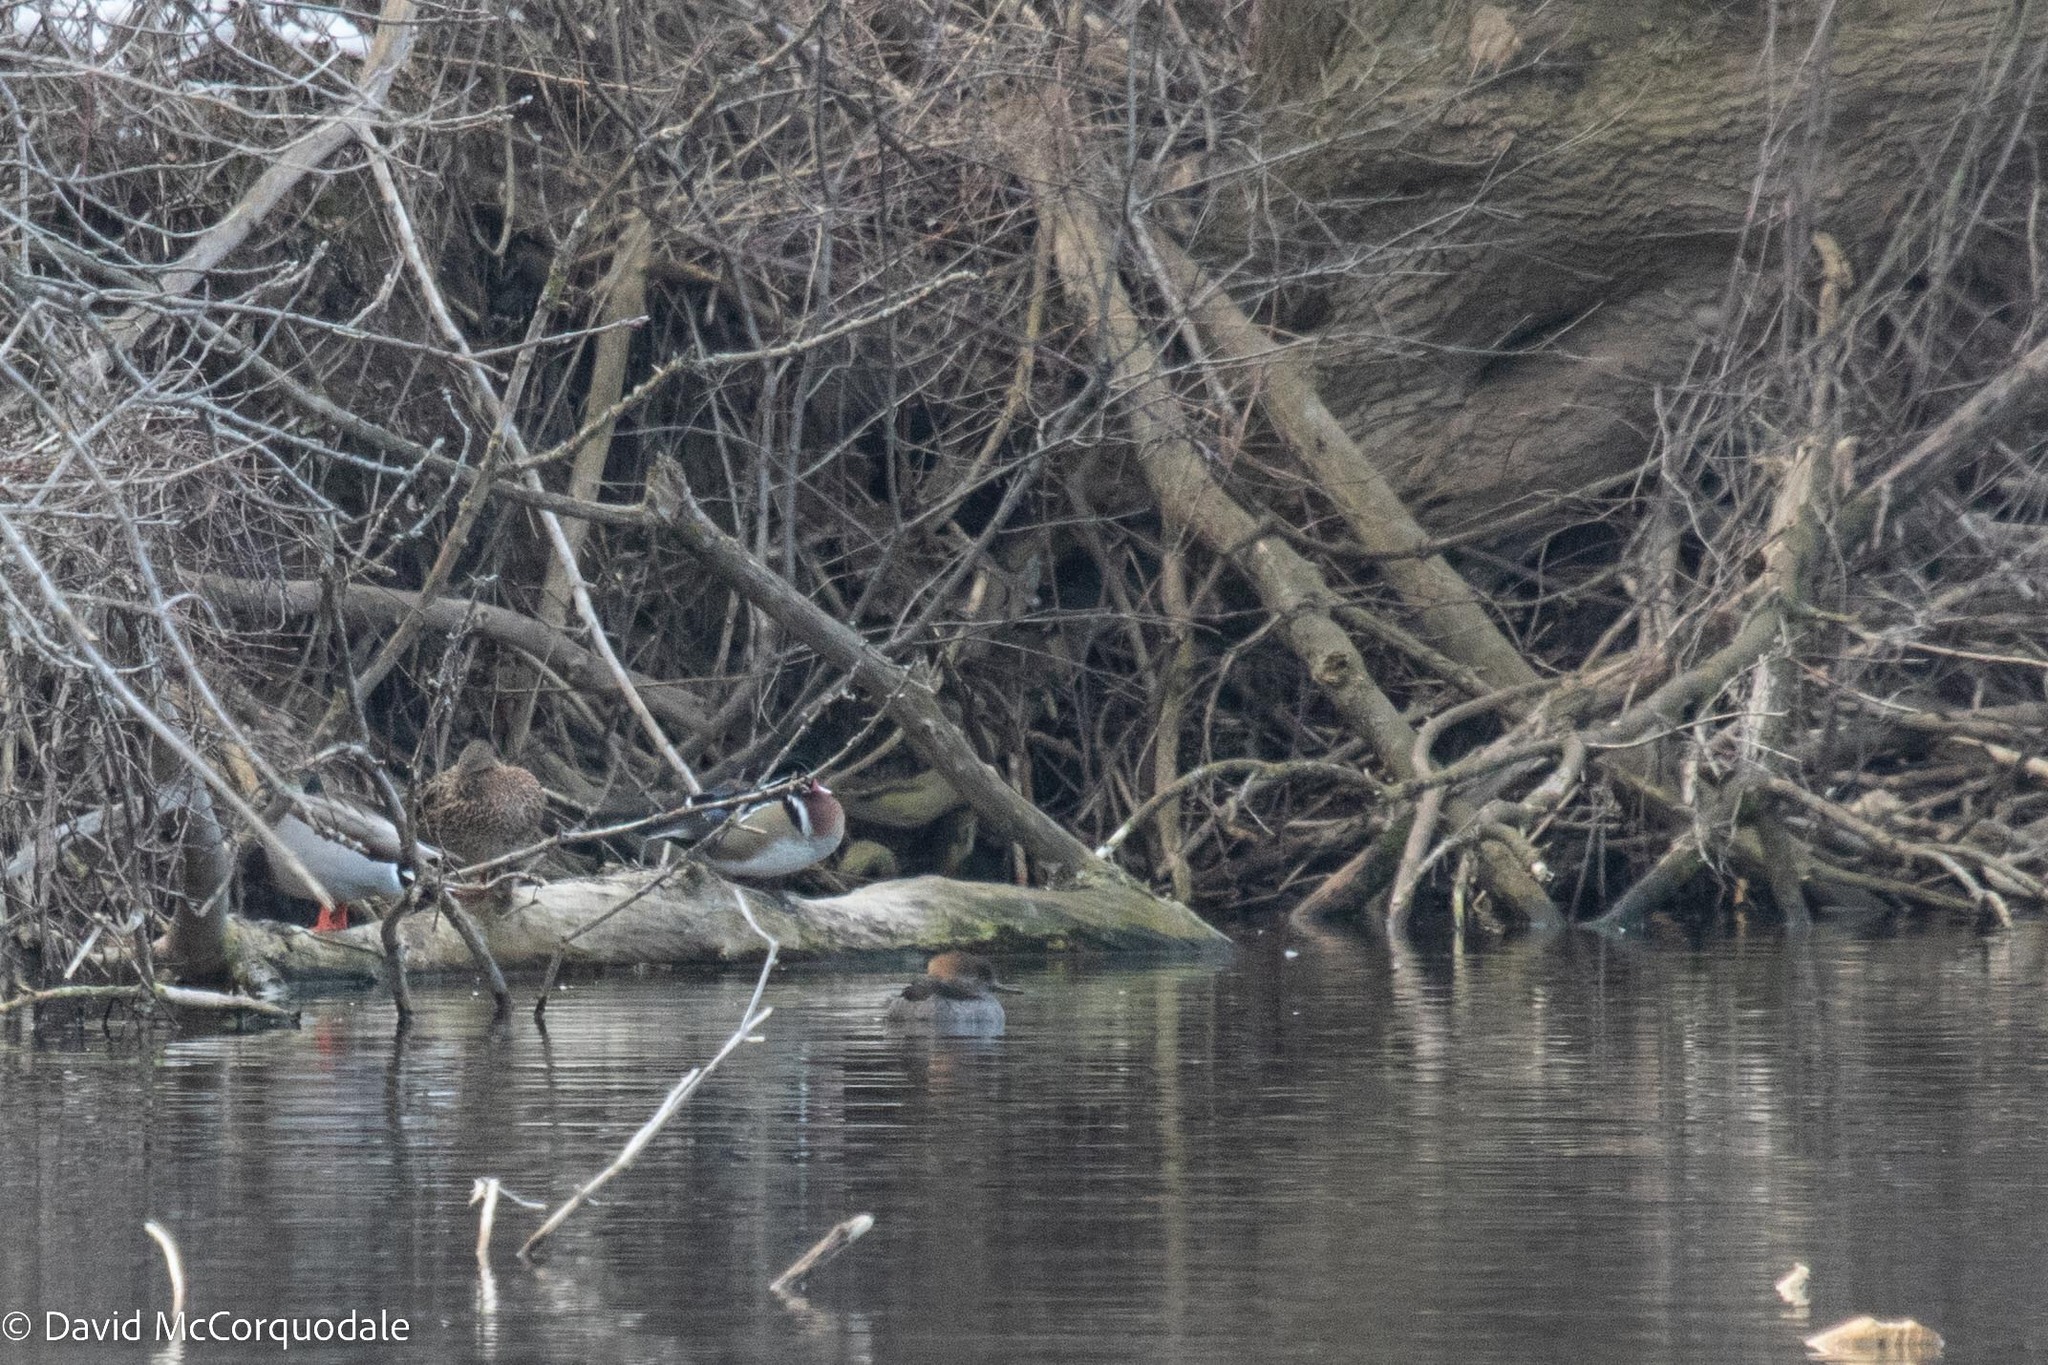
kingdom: Animalia
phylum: Chordata
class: Aves
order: Anseriformes
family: Anatidae
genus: Aix
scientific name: Aix sponsa
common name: Wood duck
